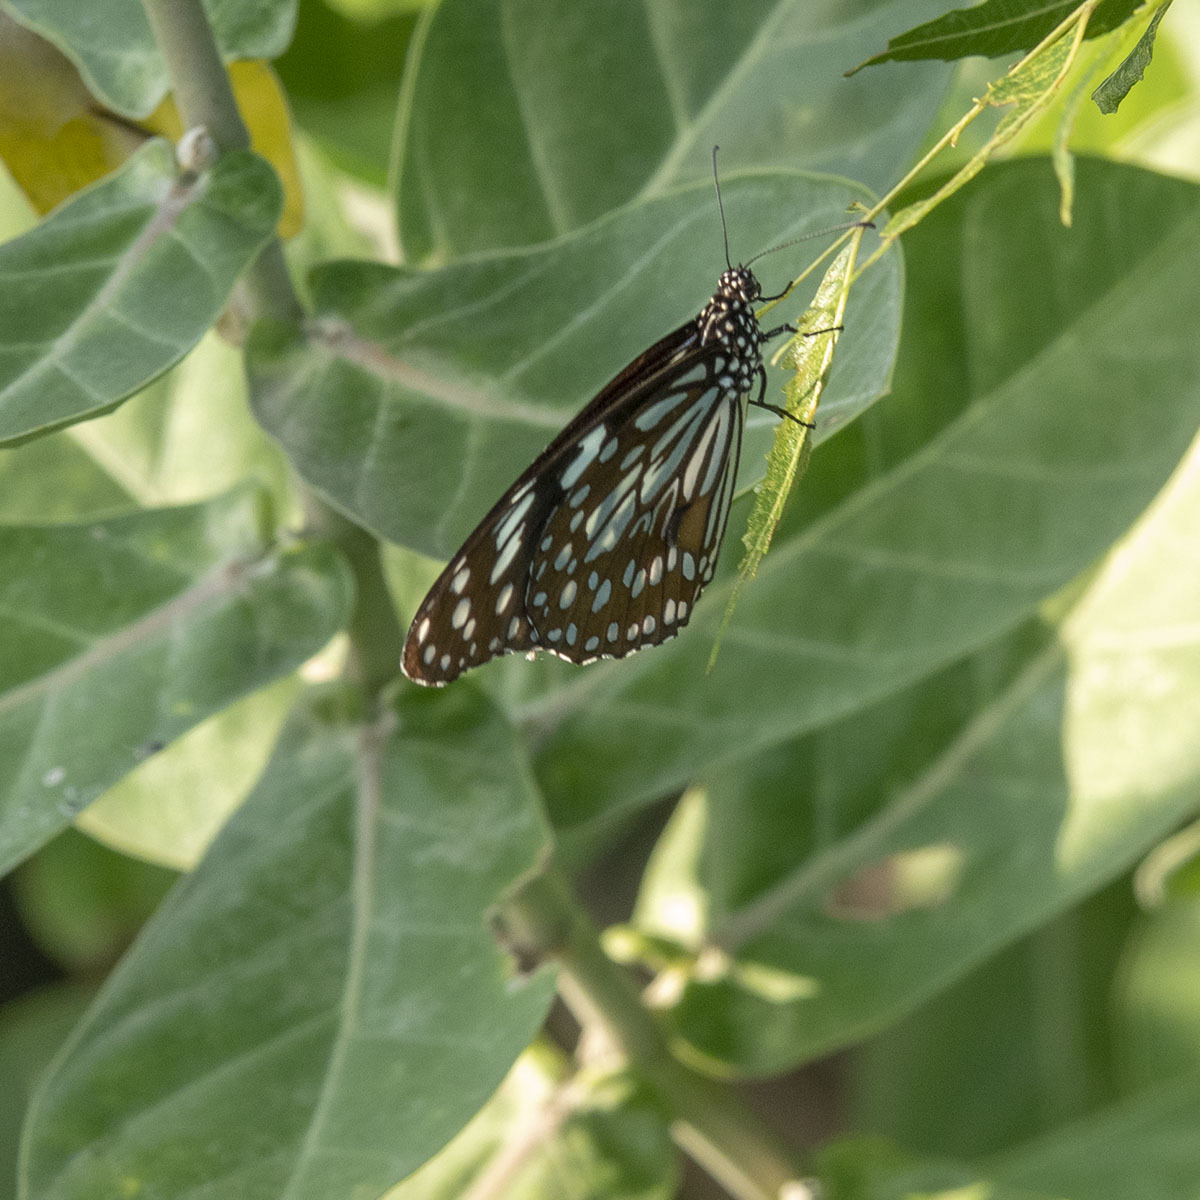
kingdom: Animalia
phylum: Arthropoda
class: Insecta
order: Lepidoptera
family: Nymphalidae
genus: Tirumala
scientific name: Tirumala septentrionis
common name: Dark blue tiger butterfly
